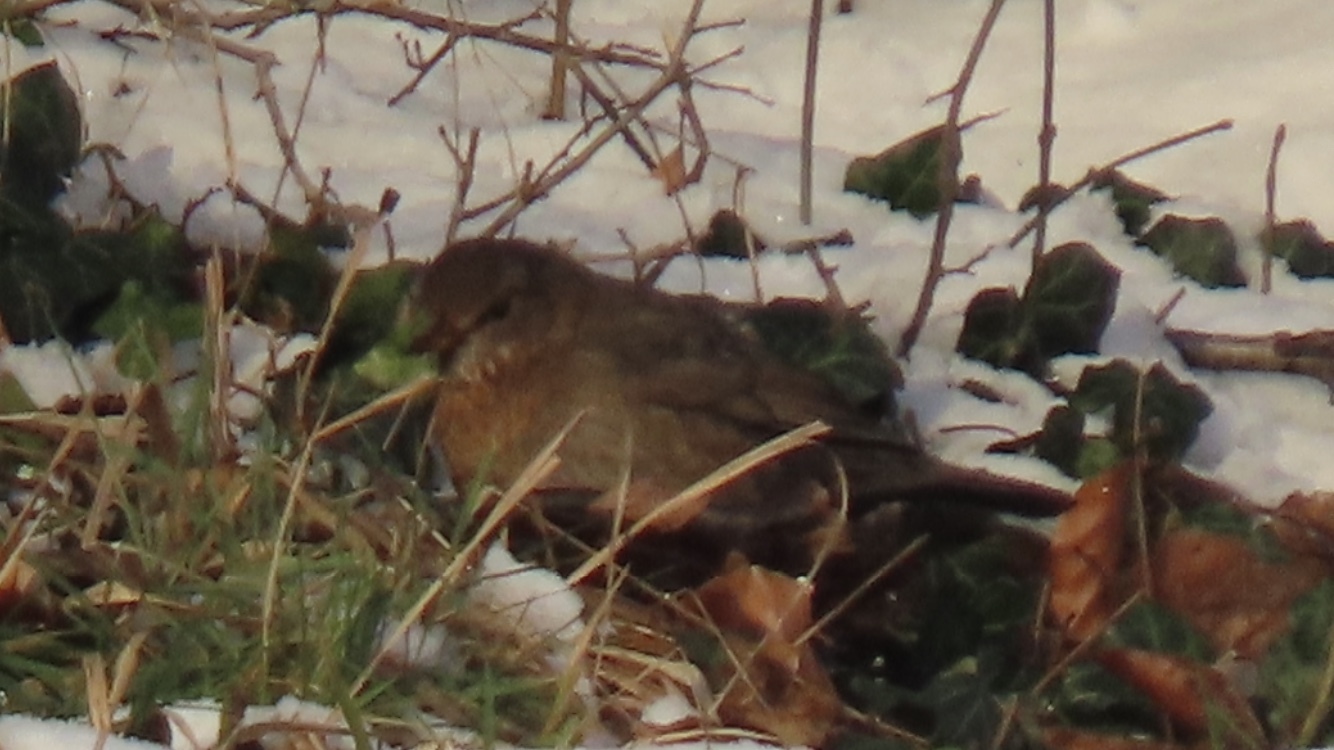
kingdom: Animalia
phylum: Chordata
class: Aves
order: Passeriformes
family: Turdidae
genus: Turdus
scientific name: Turdus merula
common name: Common blackbird
